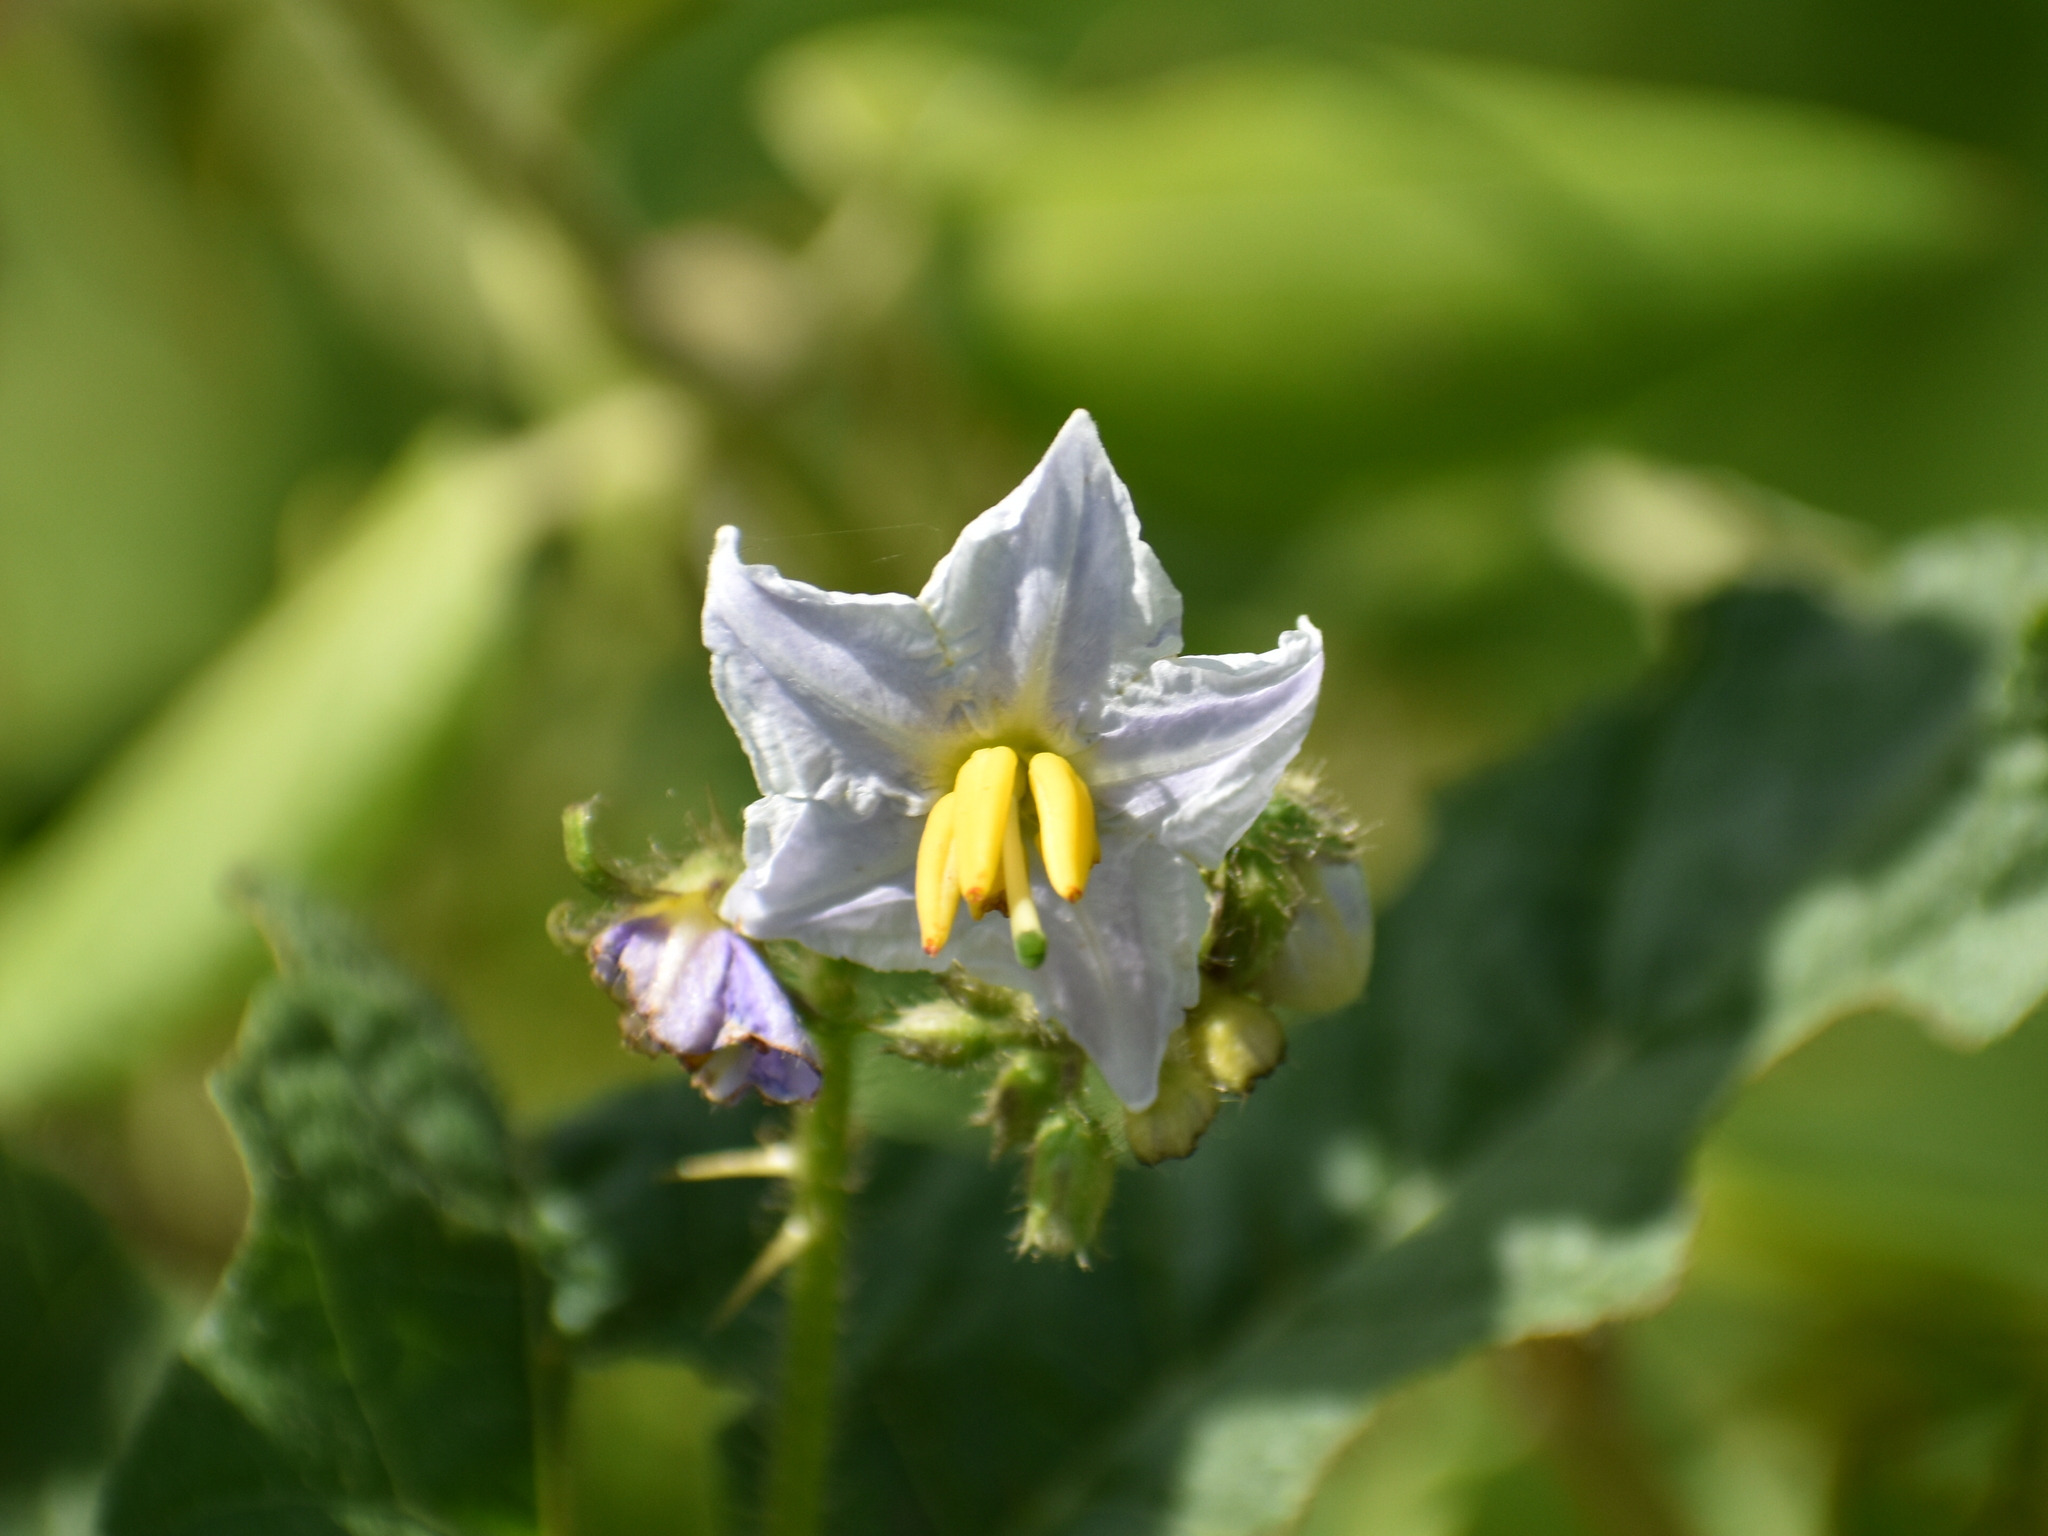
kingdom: Plantae
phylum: Tracheophyta
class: Magnoliopsida
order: Solanales
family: Solanaceae
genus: Solanum
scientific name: Solanum carolinense
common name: Horse-nettle
